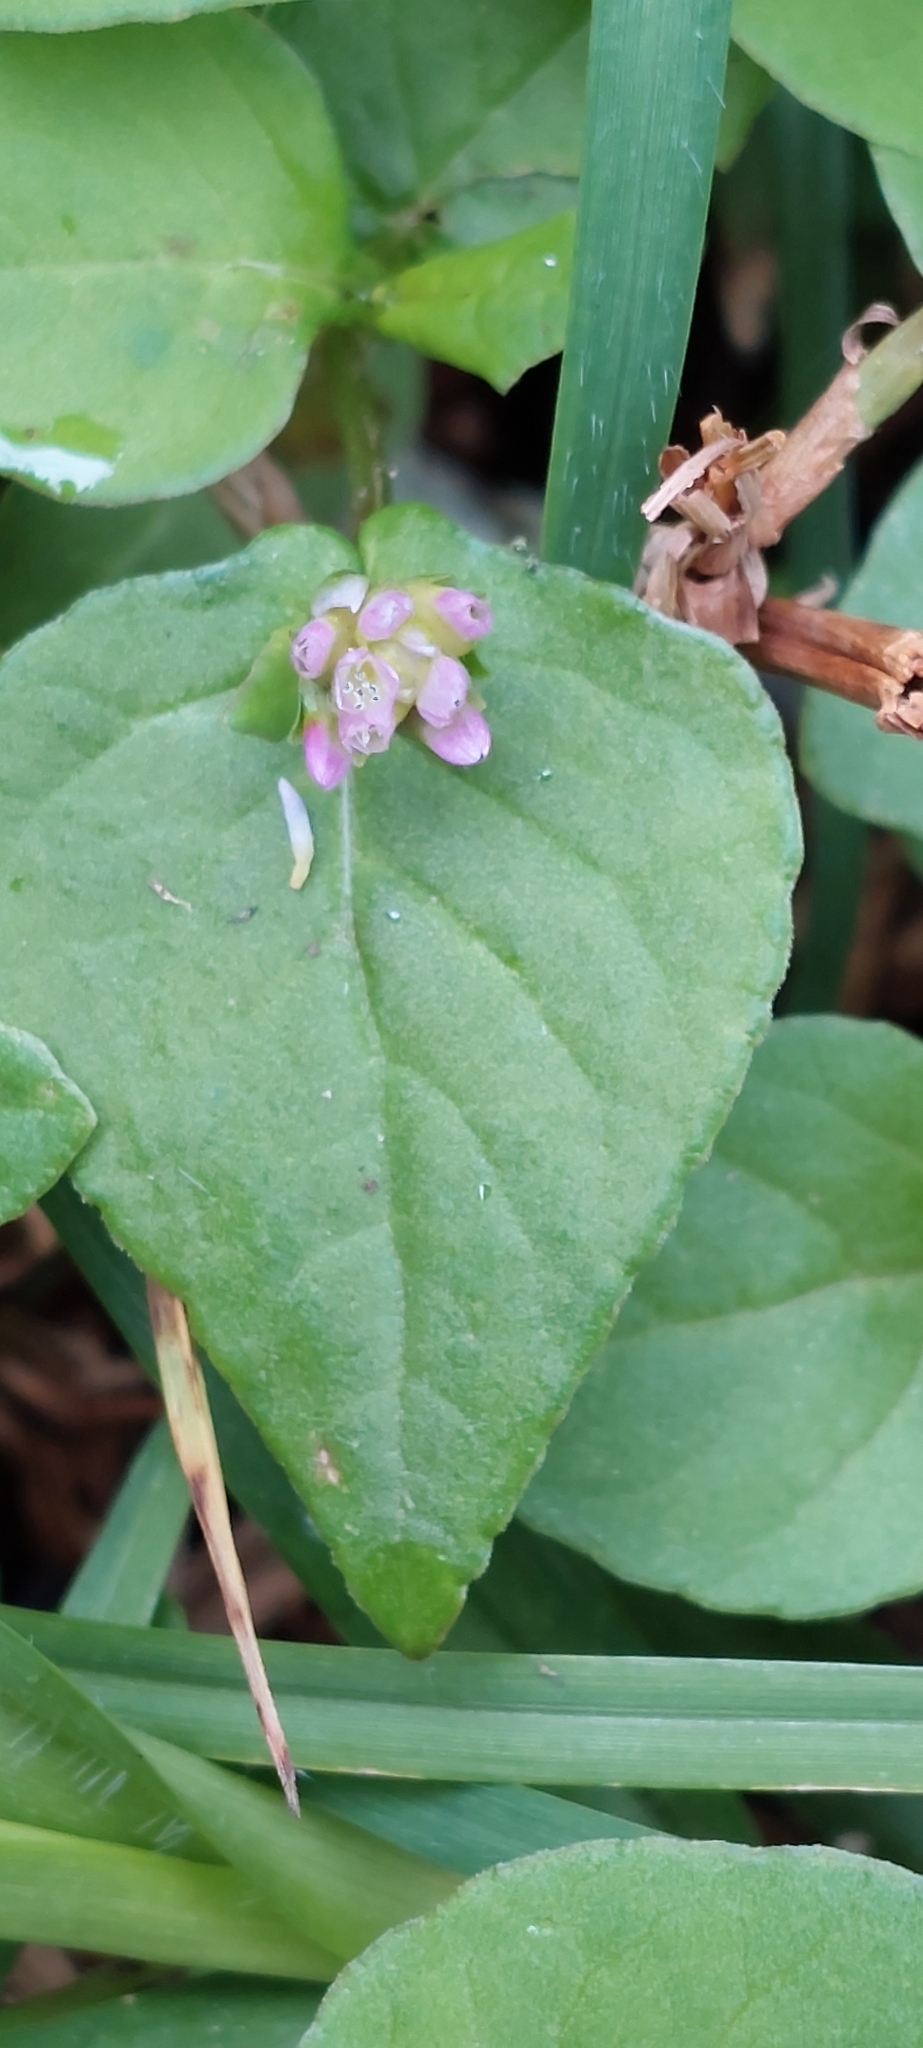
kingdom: Plantae
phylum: Tracheophyta
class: Magnoliopsida
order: Caryophyllales
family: Polygonaceae
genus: Persicaria
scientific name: Persicaria nepalensis
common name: Nepal persicaria
